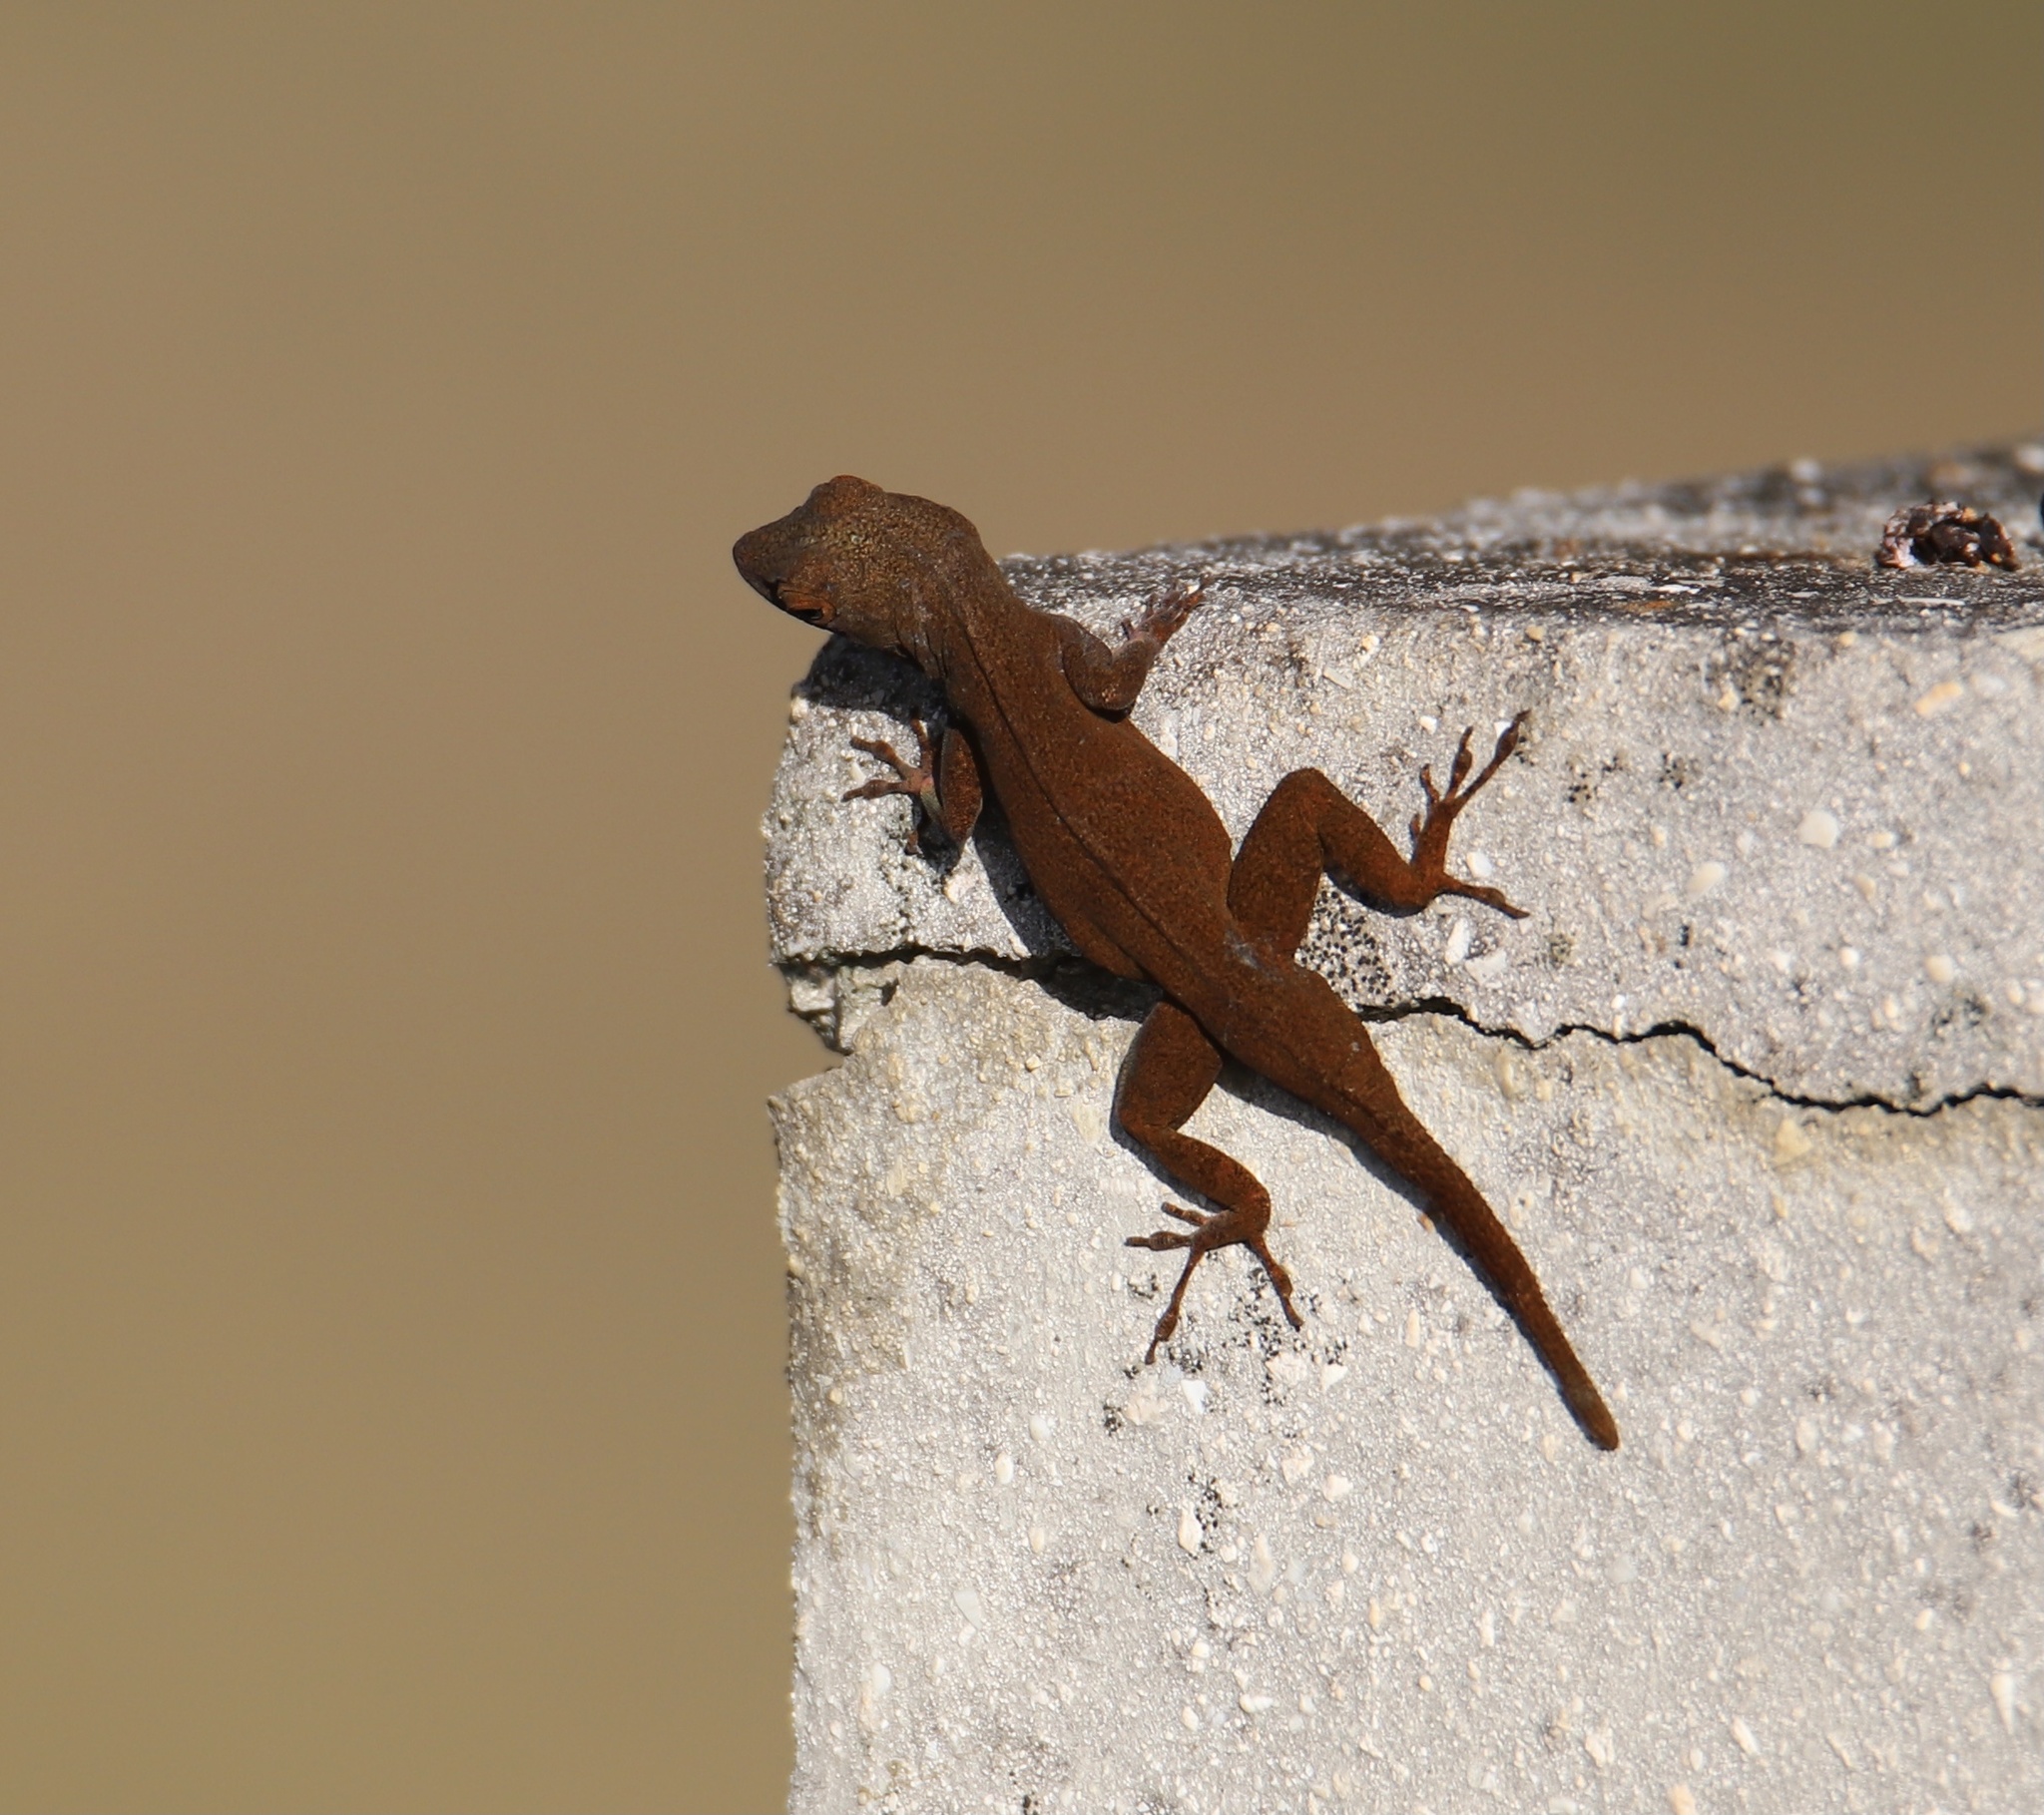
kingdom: Animalia
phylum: Chordata
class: Squamata
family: Dactyloidae
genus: Anolis
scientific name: Anolis distichus
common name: Bark anole
